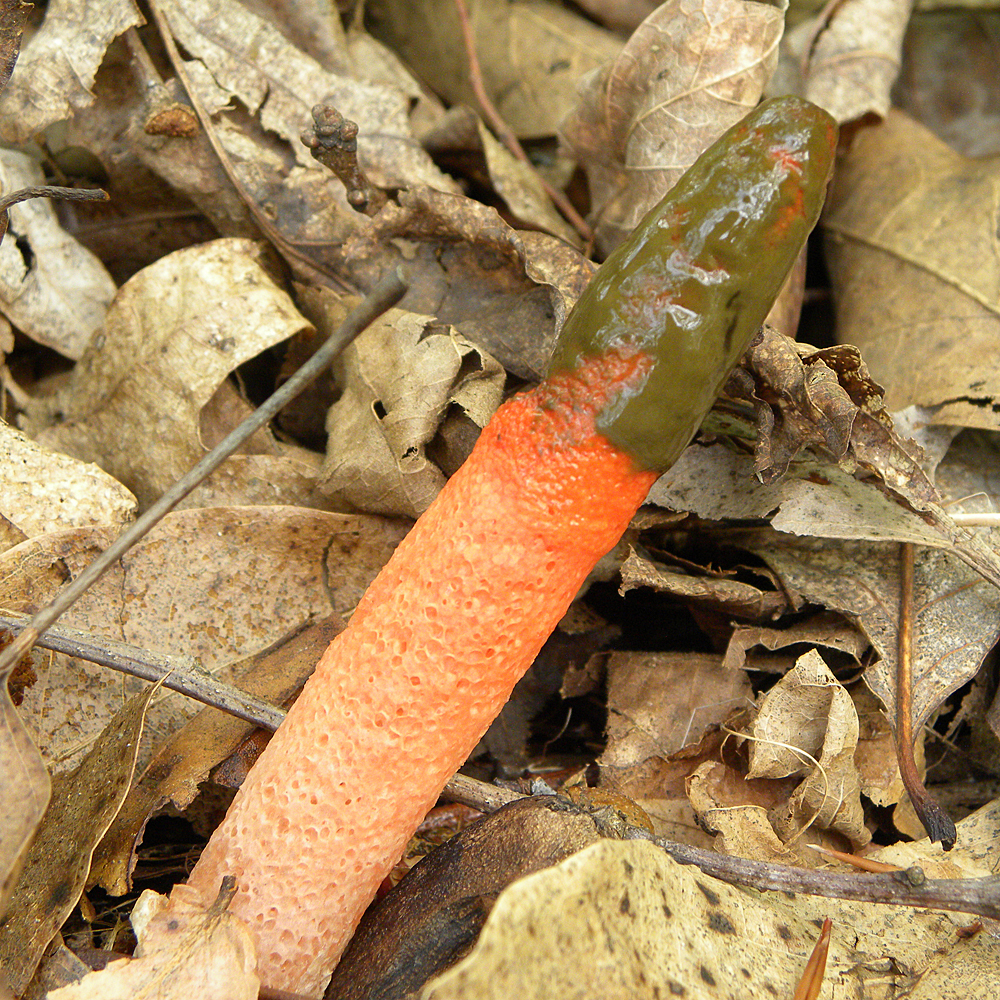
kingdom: Fungi
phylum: Basidiomycota
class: Agaricomycetes
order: Phallales
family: Phallaceae
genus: Mutinus
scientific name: Mutinus elegans
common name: Devil's dipstick
